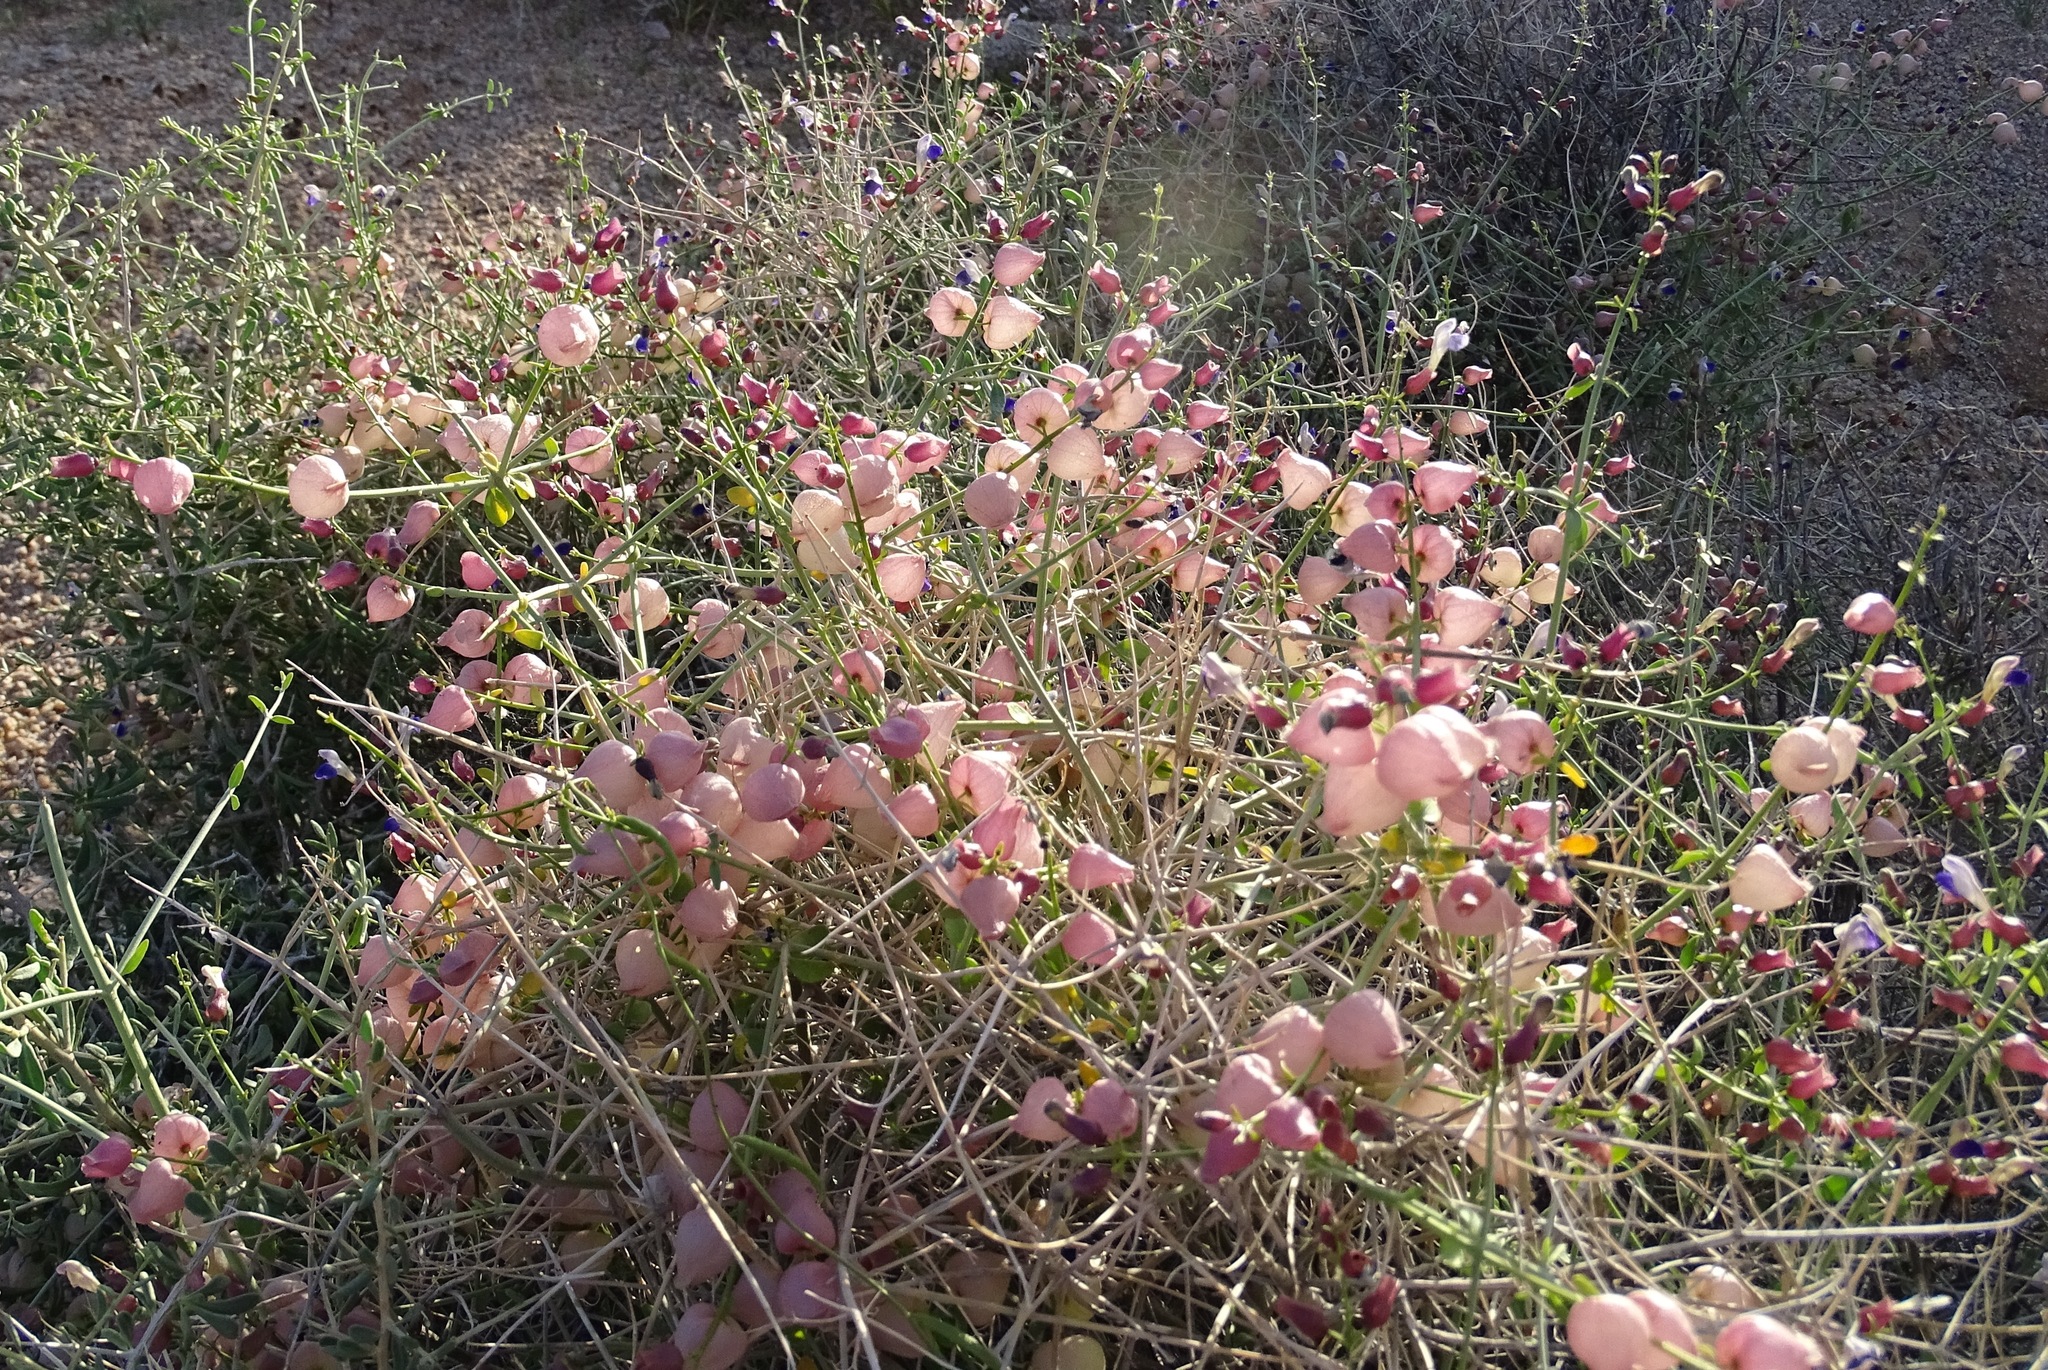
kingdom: Plantae
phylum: Tracheophyta
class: Magnoliopsida
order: Lamiales
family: Lamiaceae
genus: Scutellaria
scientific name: Scutellaria mexicana
